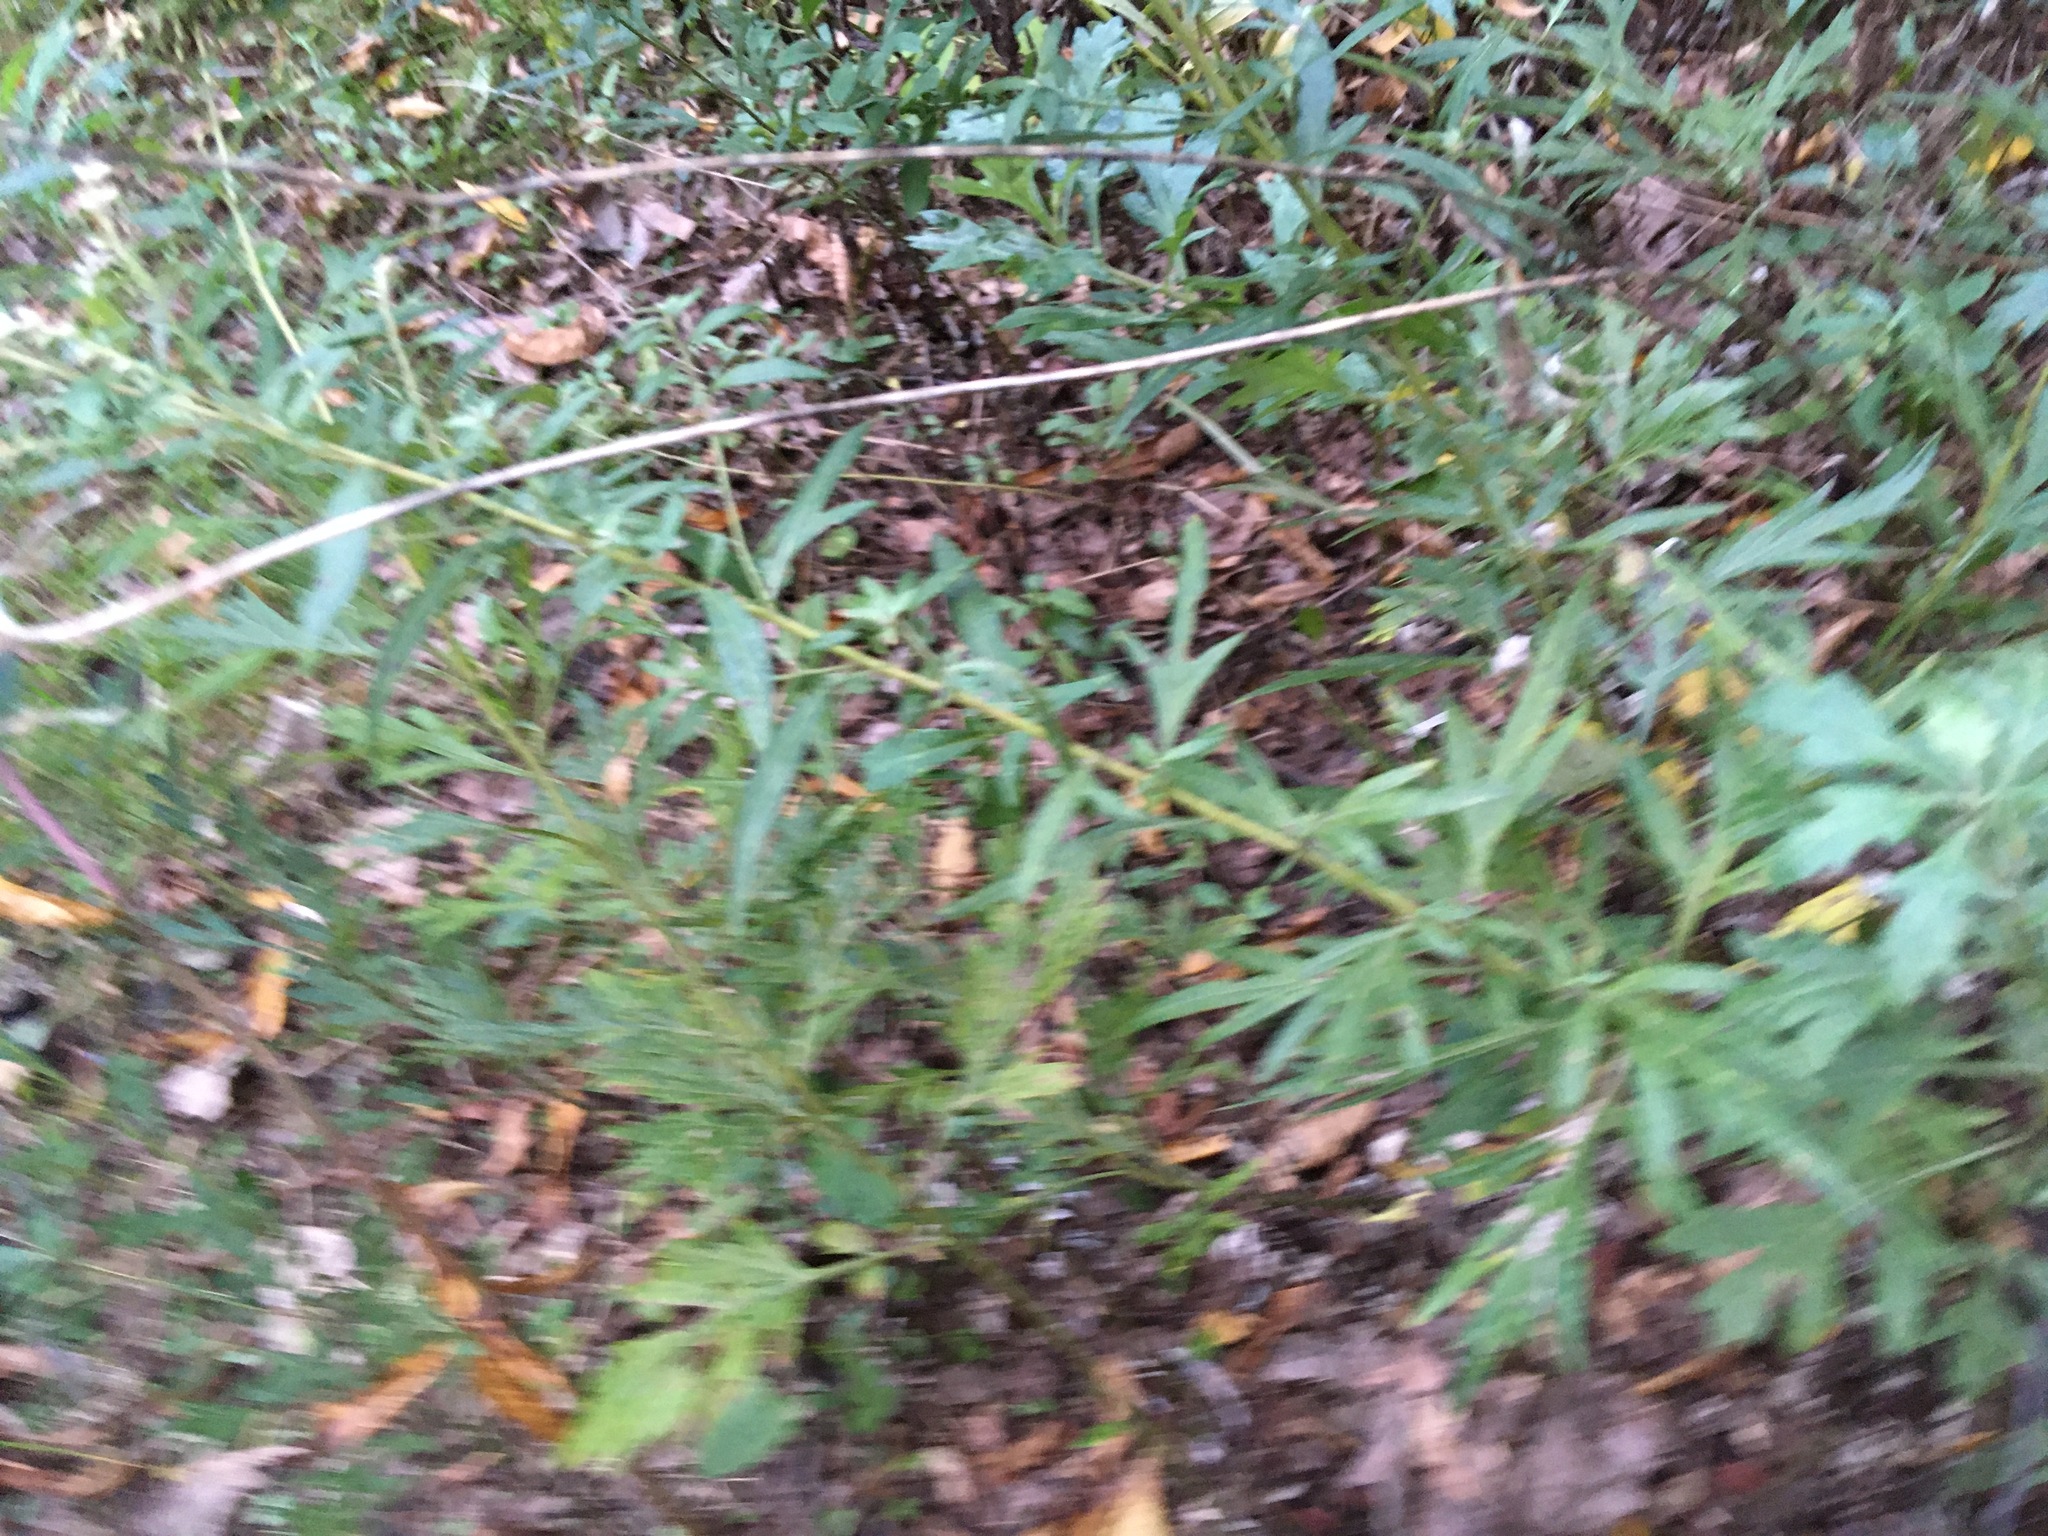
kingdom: Plantae
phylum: Tracheophyta
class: Magnoliopsida
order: Asterales
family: Asteraceae
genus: Artemisia
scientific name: Artemisia vulgaris
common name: Mugwort
